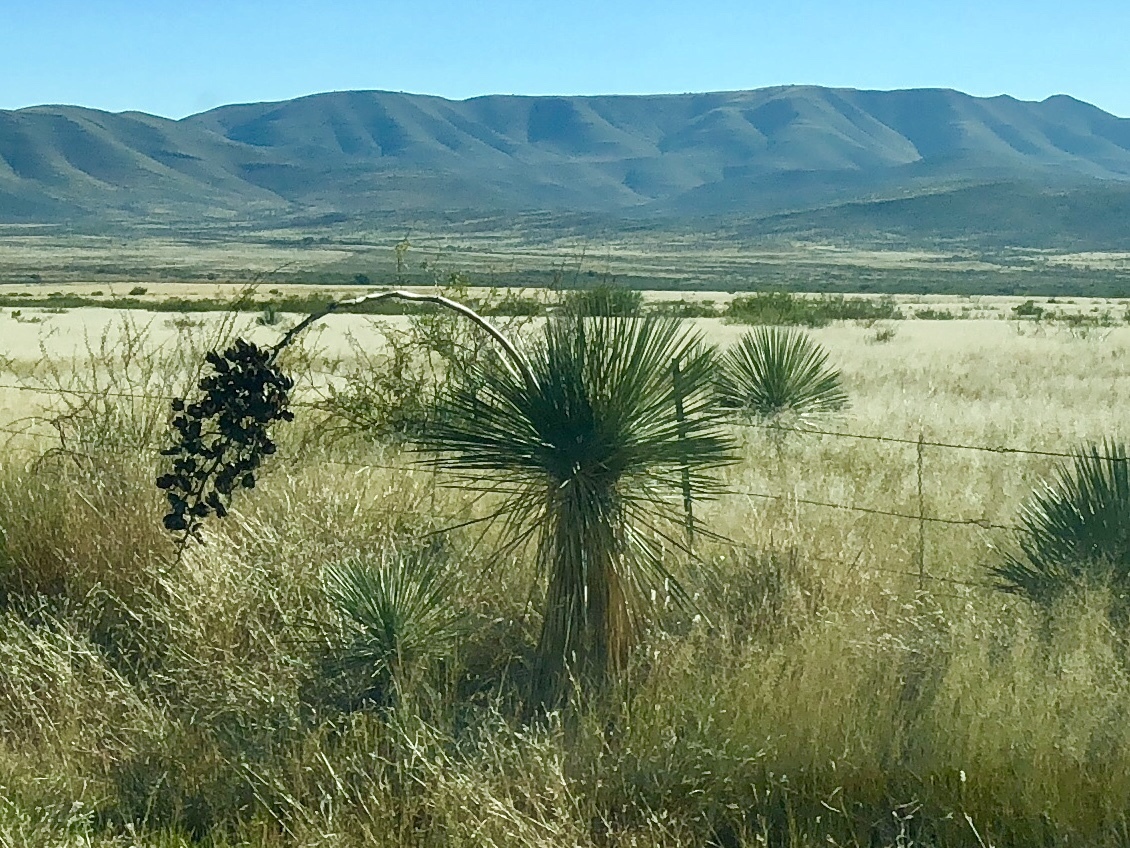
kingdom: Plantae
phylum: Tracheophyta
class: Liliopsida
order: Asparagales
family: Asparagaceae
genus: Yucca
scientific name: Yucca elata
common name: Palmella
